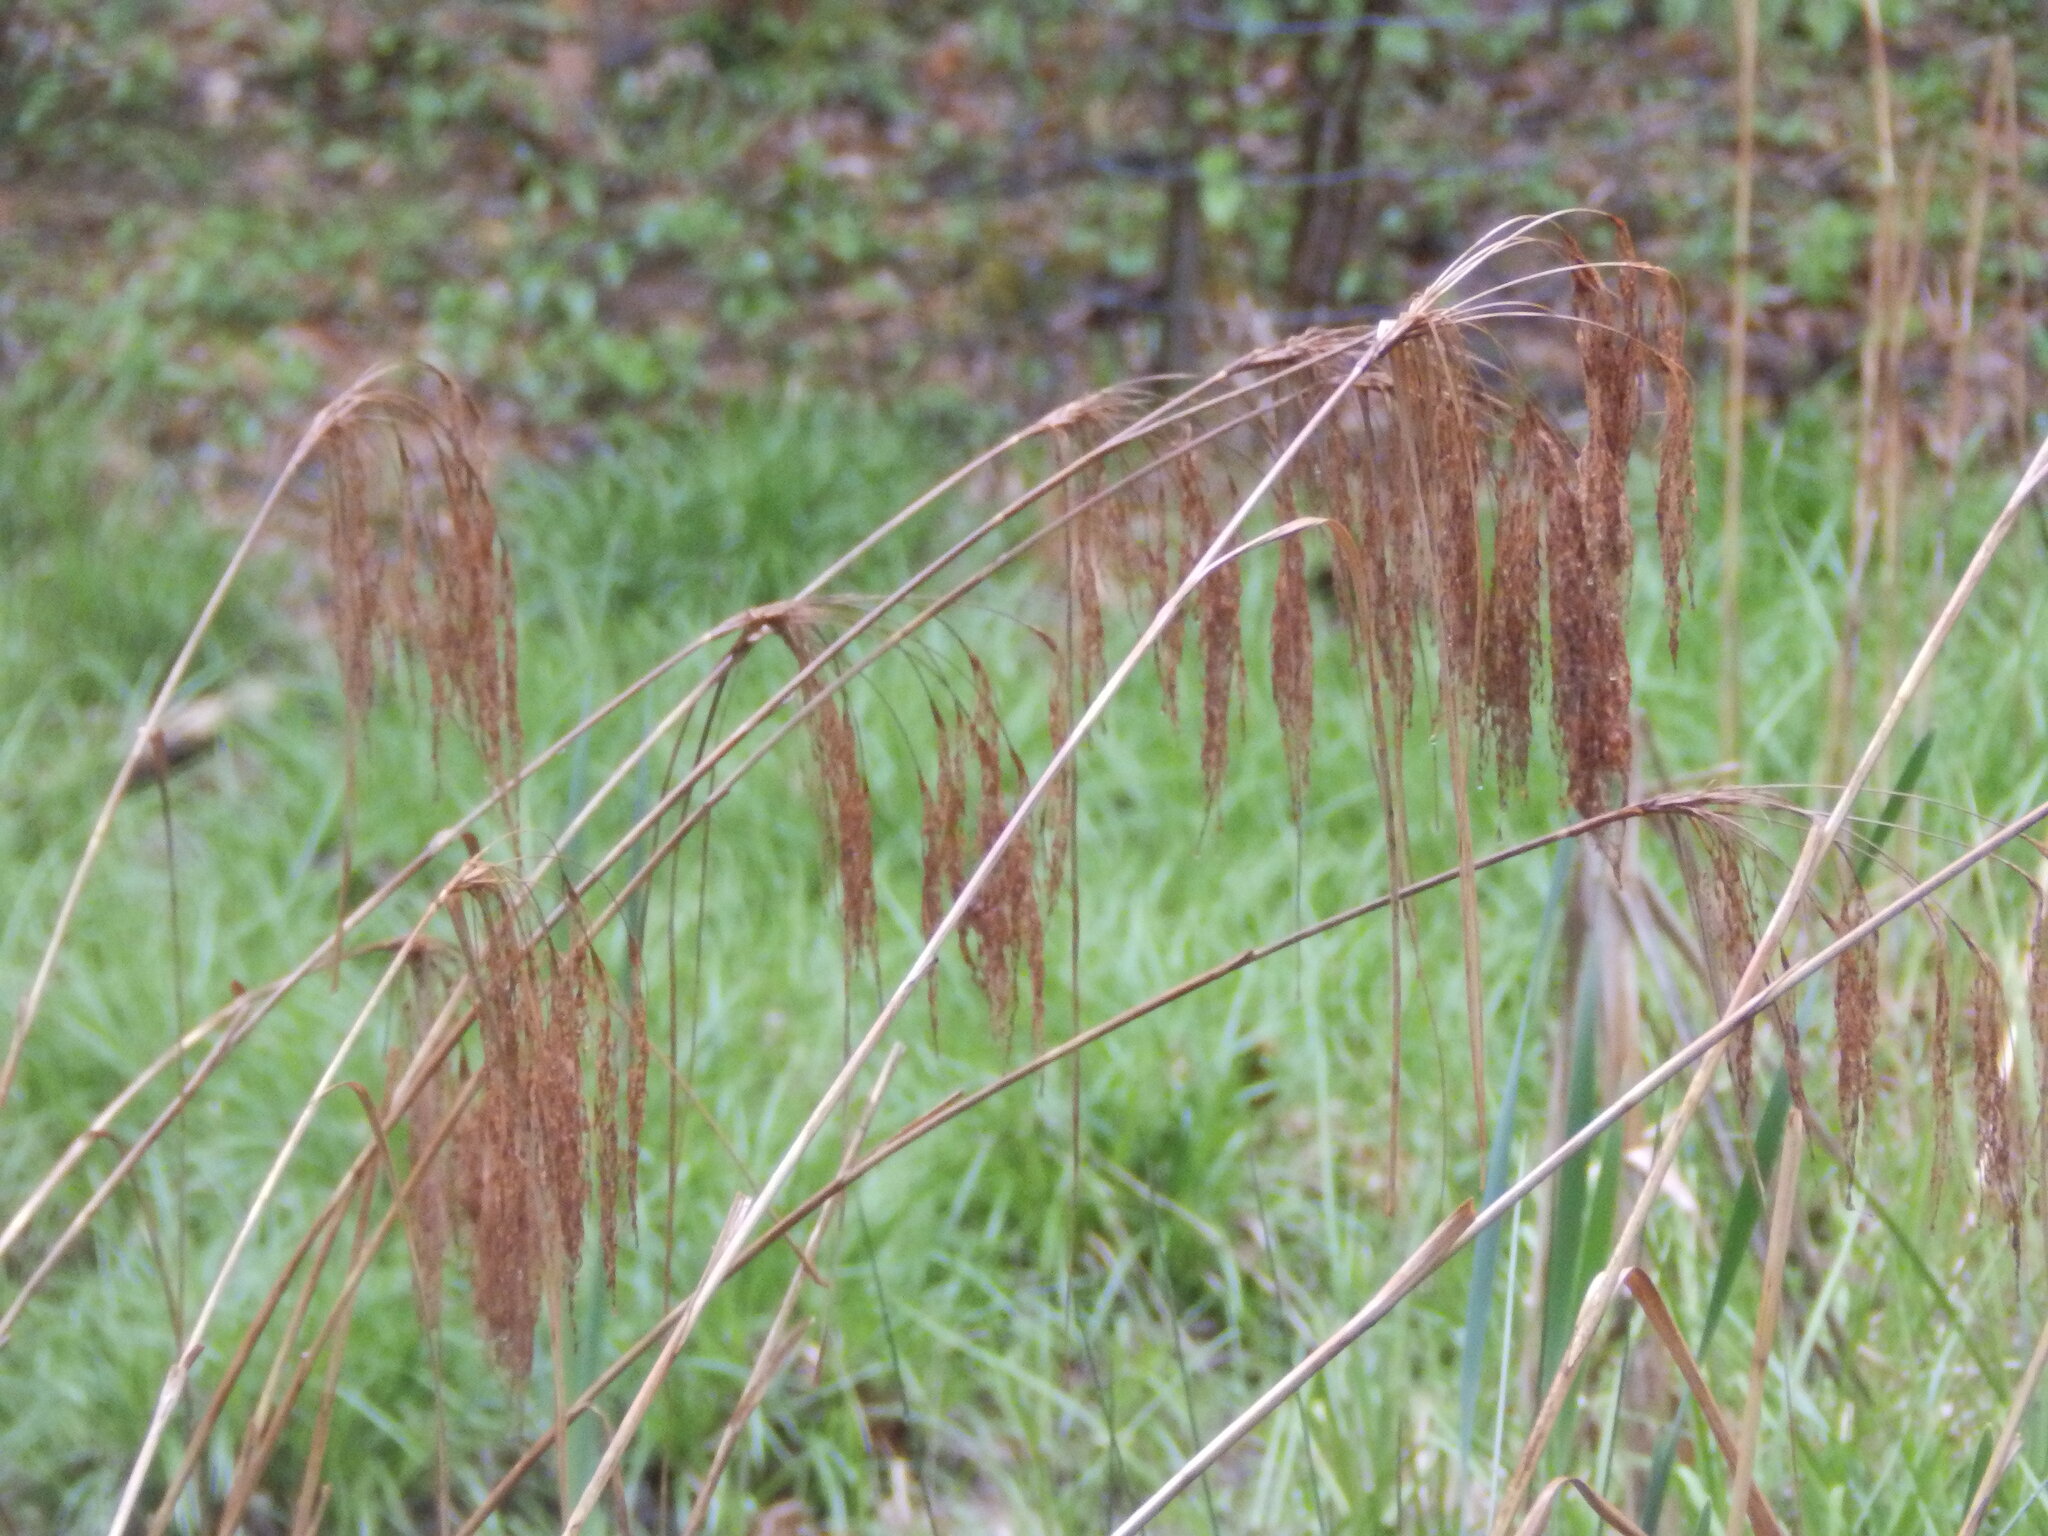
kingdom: Plantae
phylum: Tracheophyta
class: Liliopsida
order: Poales
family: Cyperaceae
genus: Scirpus
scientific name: Scirpus cyperinus
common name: Black-sheathed bulrush
